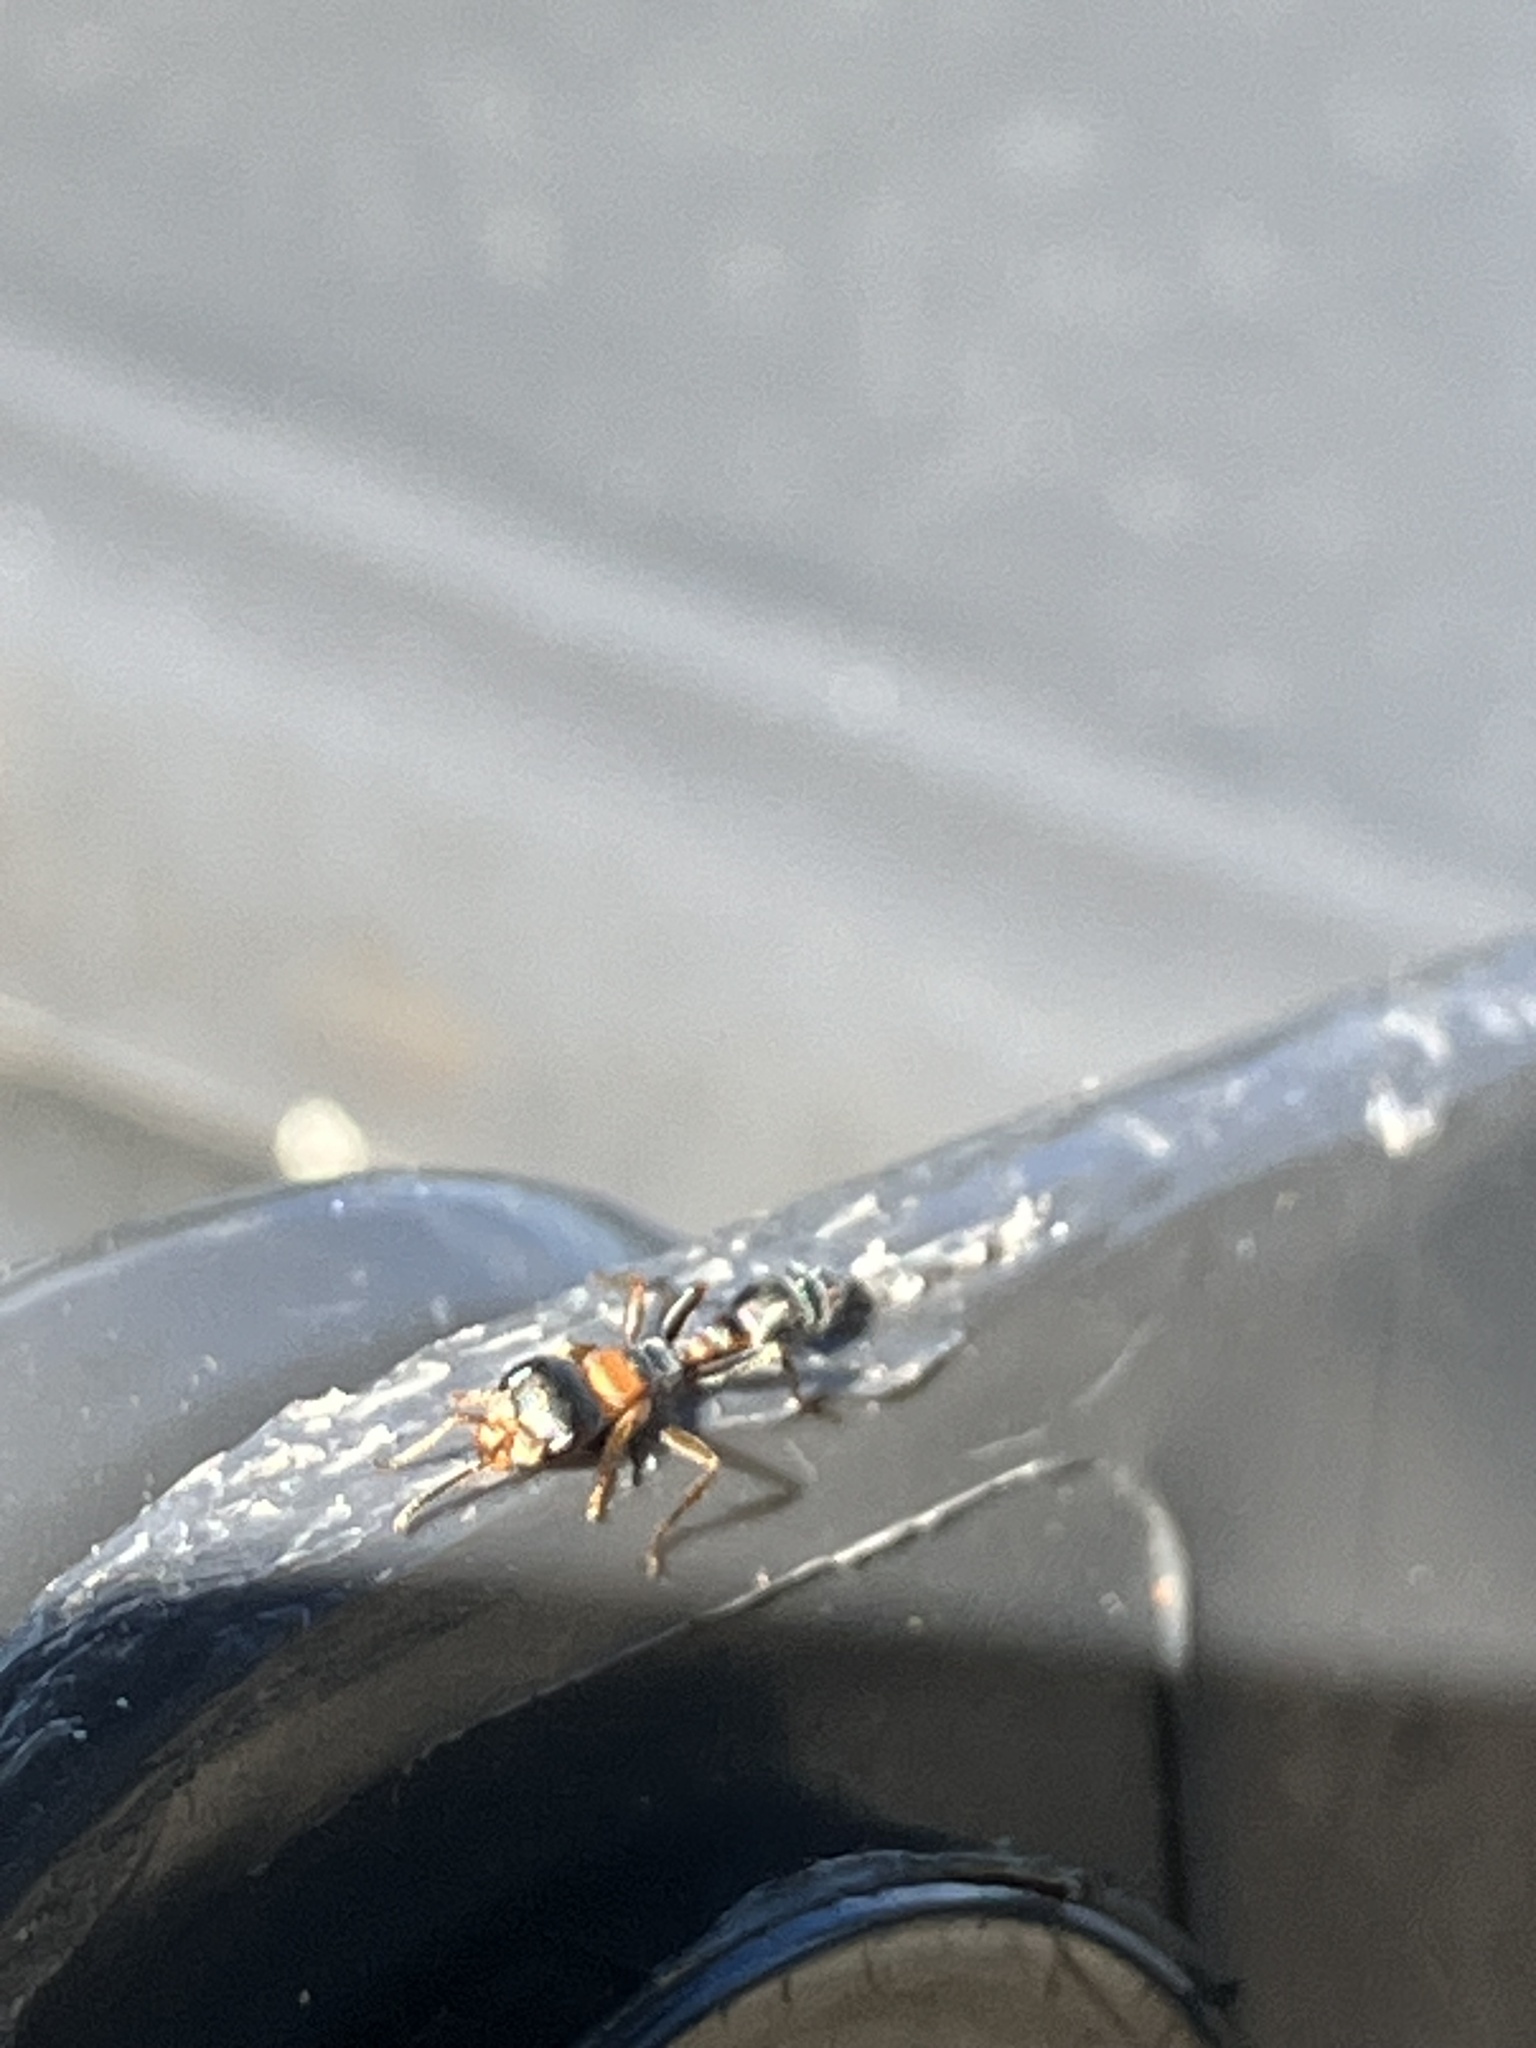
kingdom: Animalia
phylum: Arthropoda
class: Insecta
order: Hymenoptera
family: Formicidae
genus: Pseudomyrmex
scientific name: Pseudomyrmex gracilis
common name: Graceful twig ant
